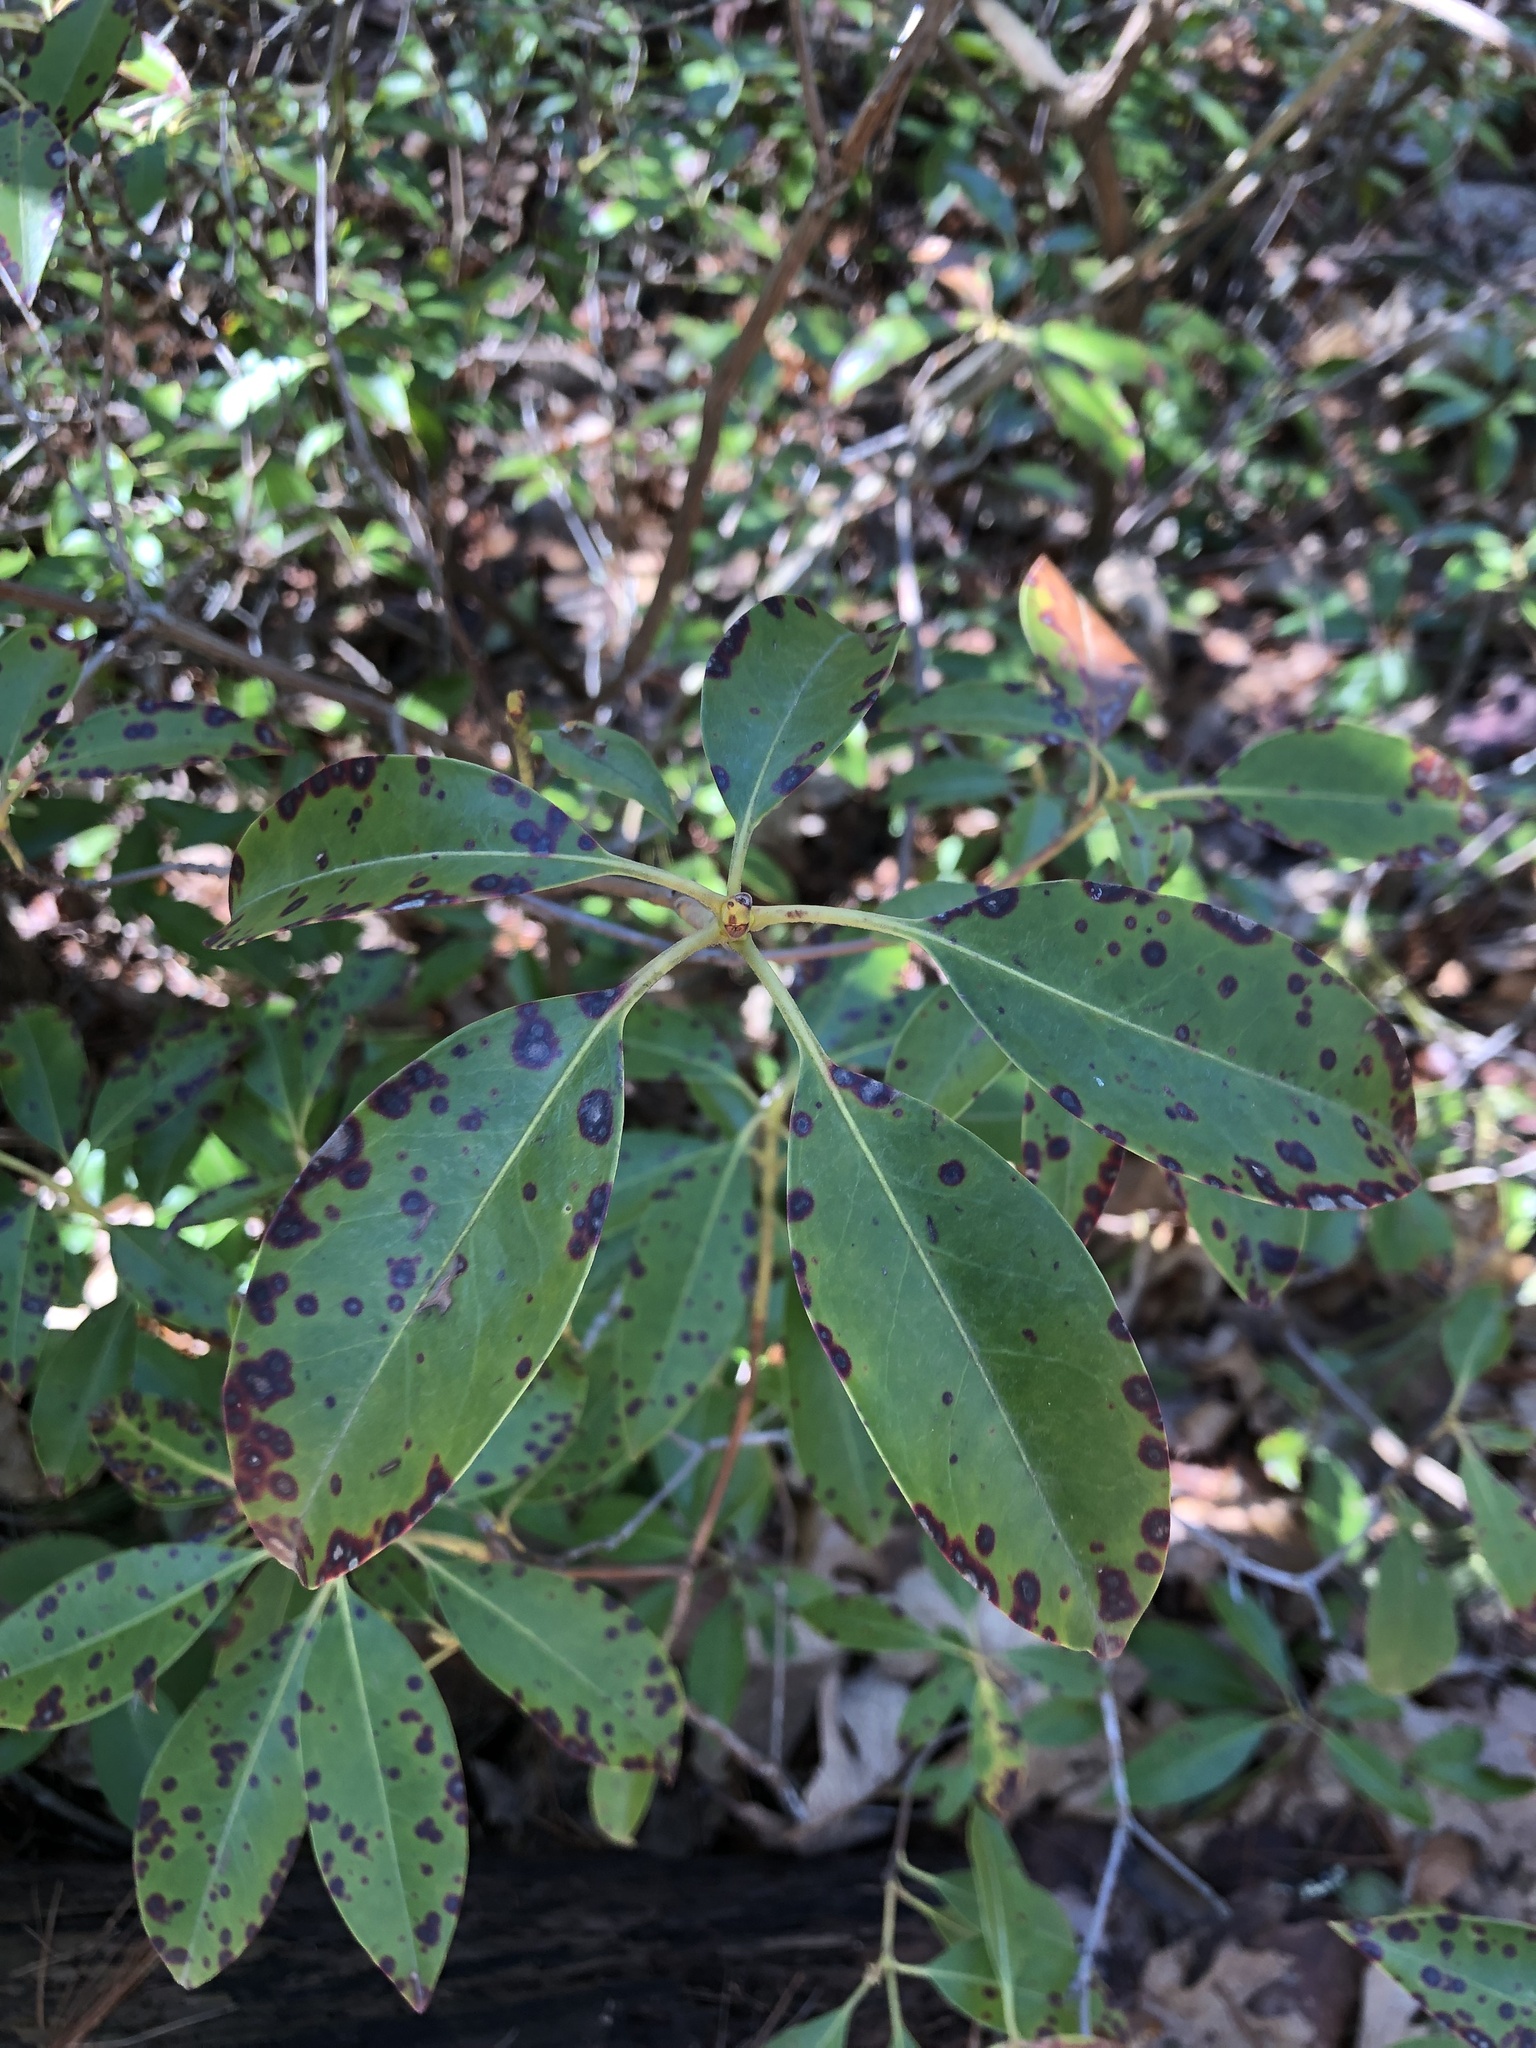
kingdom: Plantae
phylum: Tracheophyta
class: Magnoliopsida
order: Ericales
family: Ericaceae
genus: Kalmia
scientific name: Kalmia latifolia
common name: Mountain-laurel
